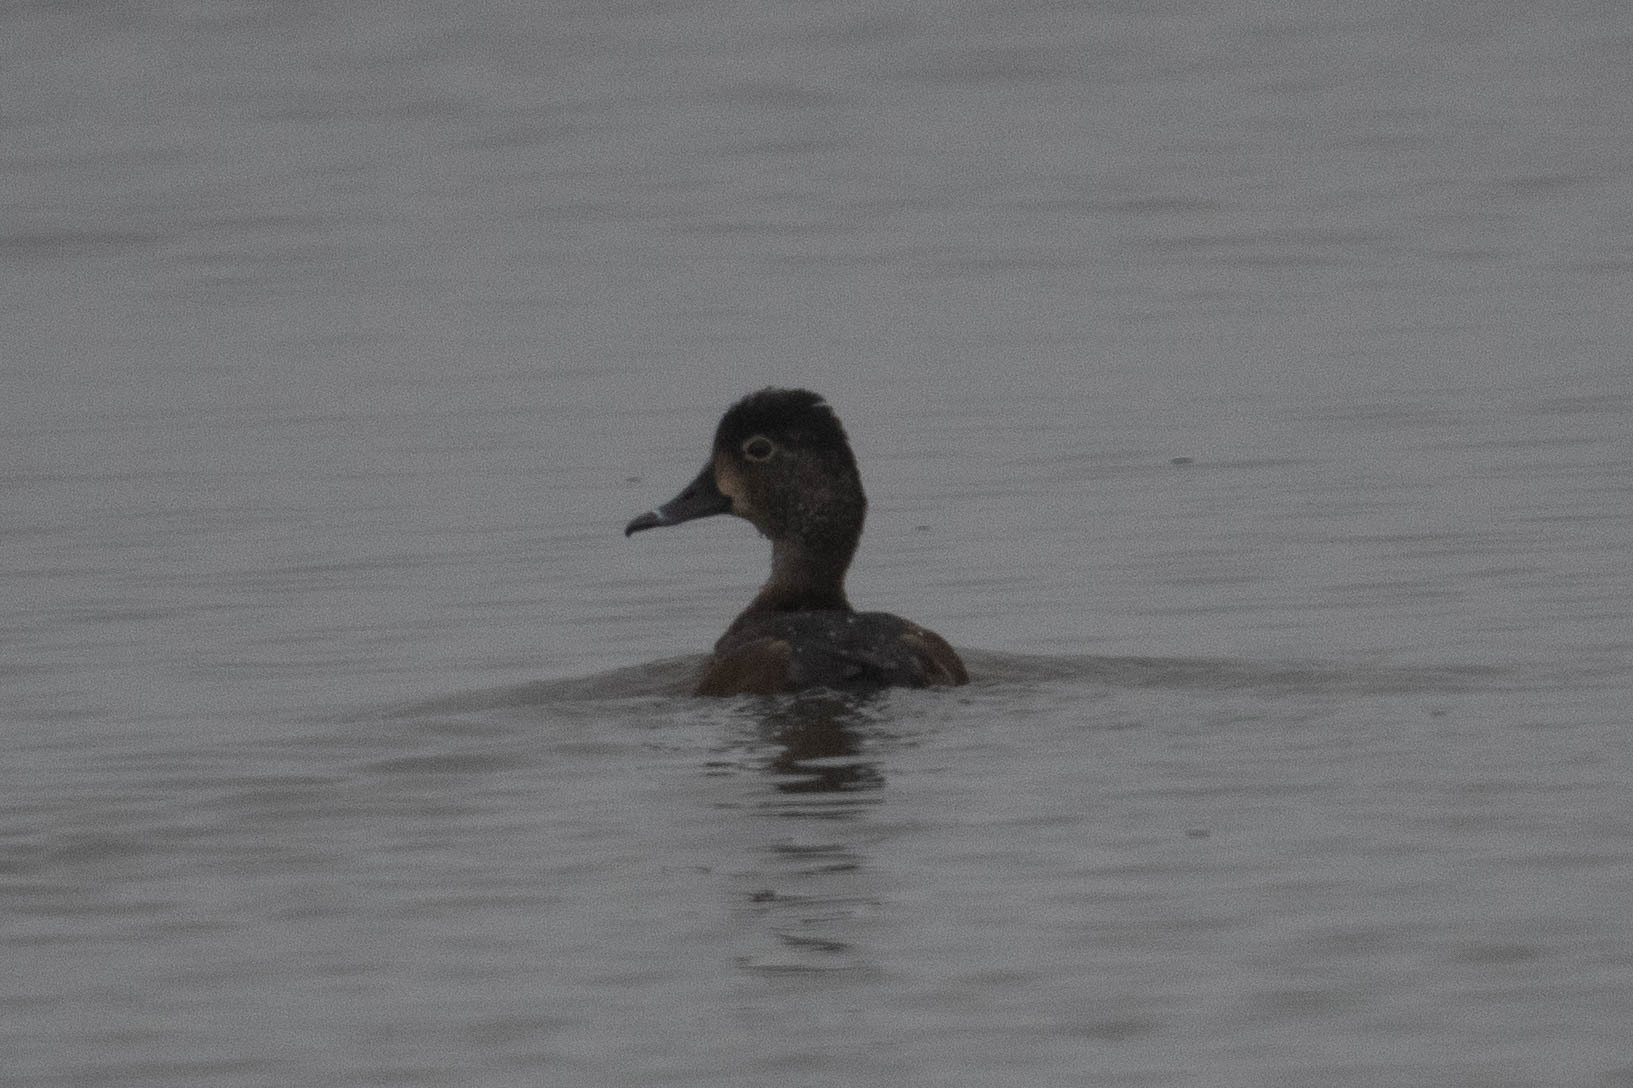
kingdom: Animalia
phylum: Chordata
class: Aves
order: Anseriformes
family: Anatidae
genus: Aythya
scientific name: Aythya collaris
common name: Ring-necked duck
